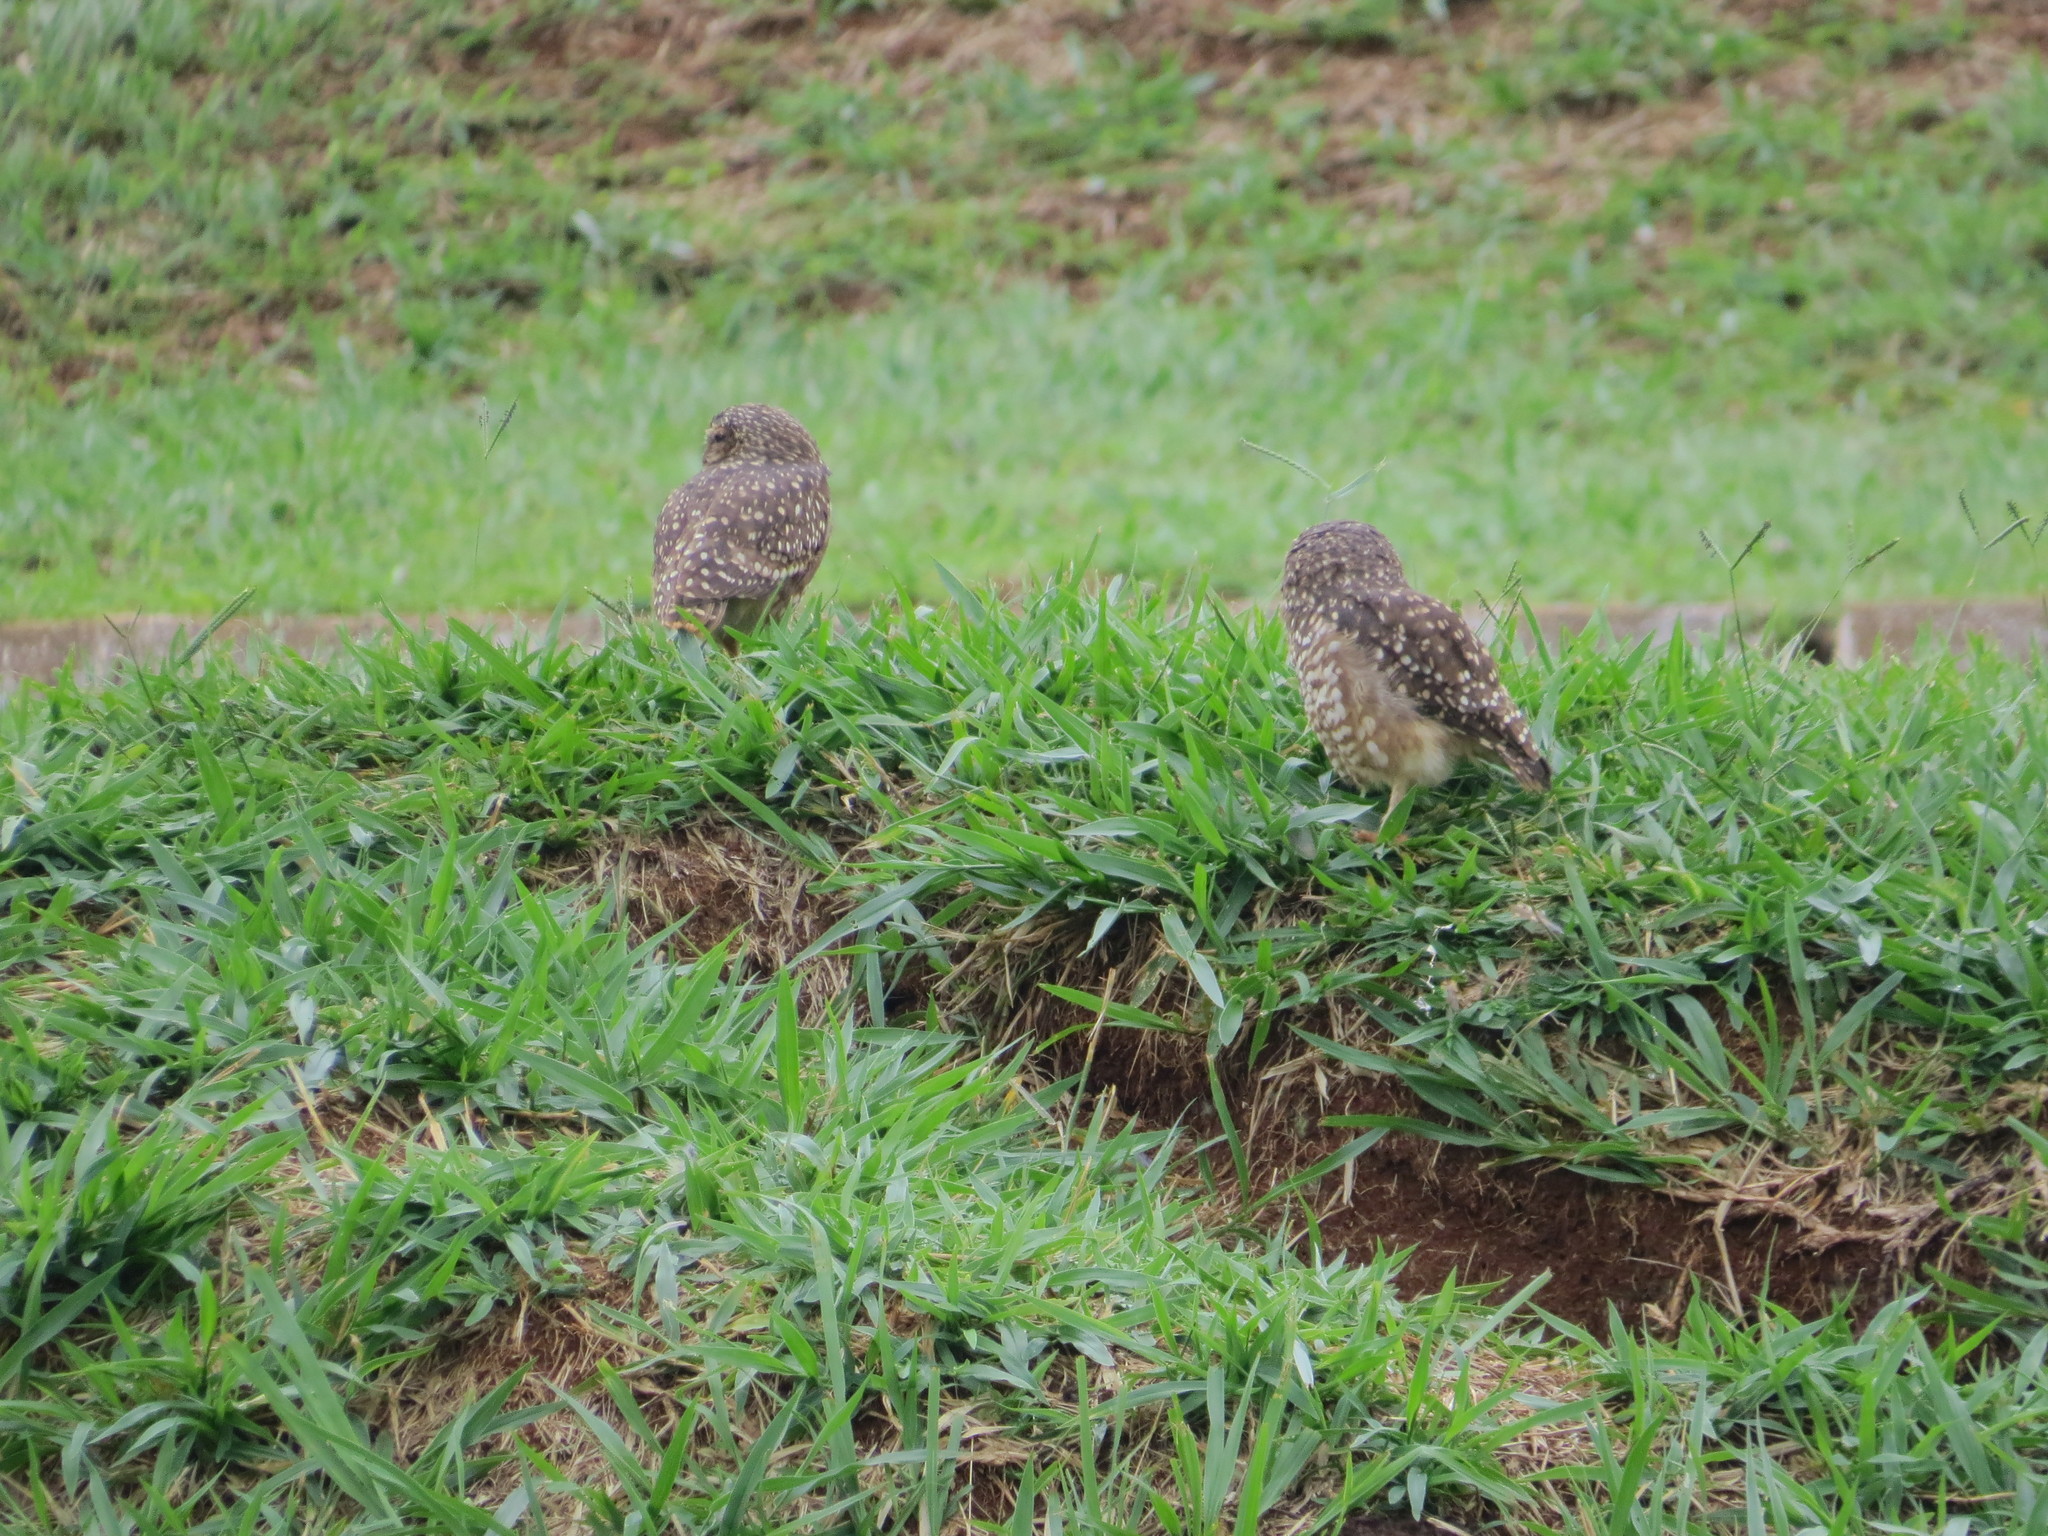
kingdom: Animalia
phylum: Chordata
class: Aves
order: Strigiformes
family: Strigidae
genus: Athene
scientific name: Athene cunicularia
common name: Burrowing owl
